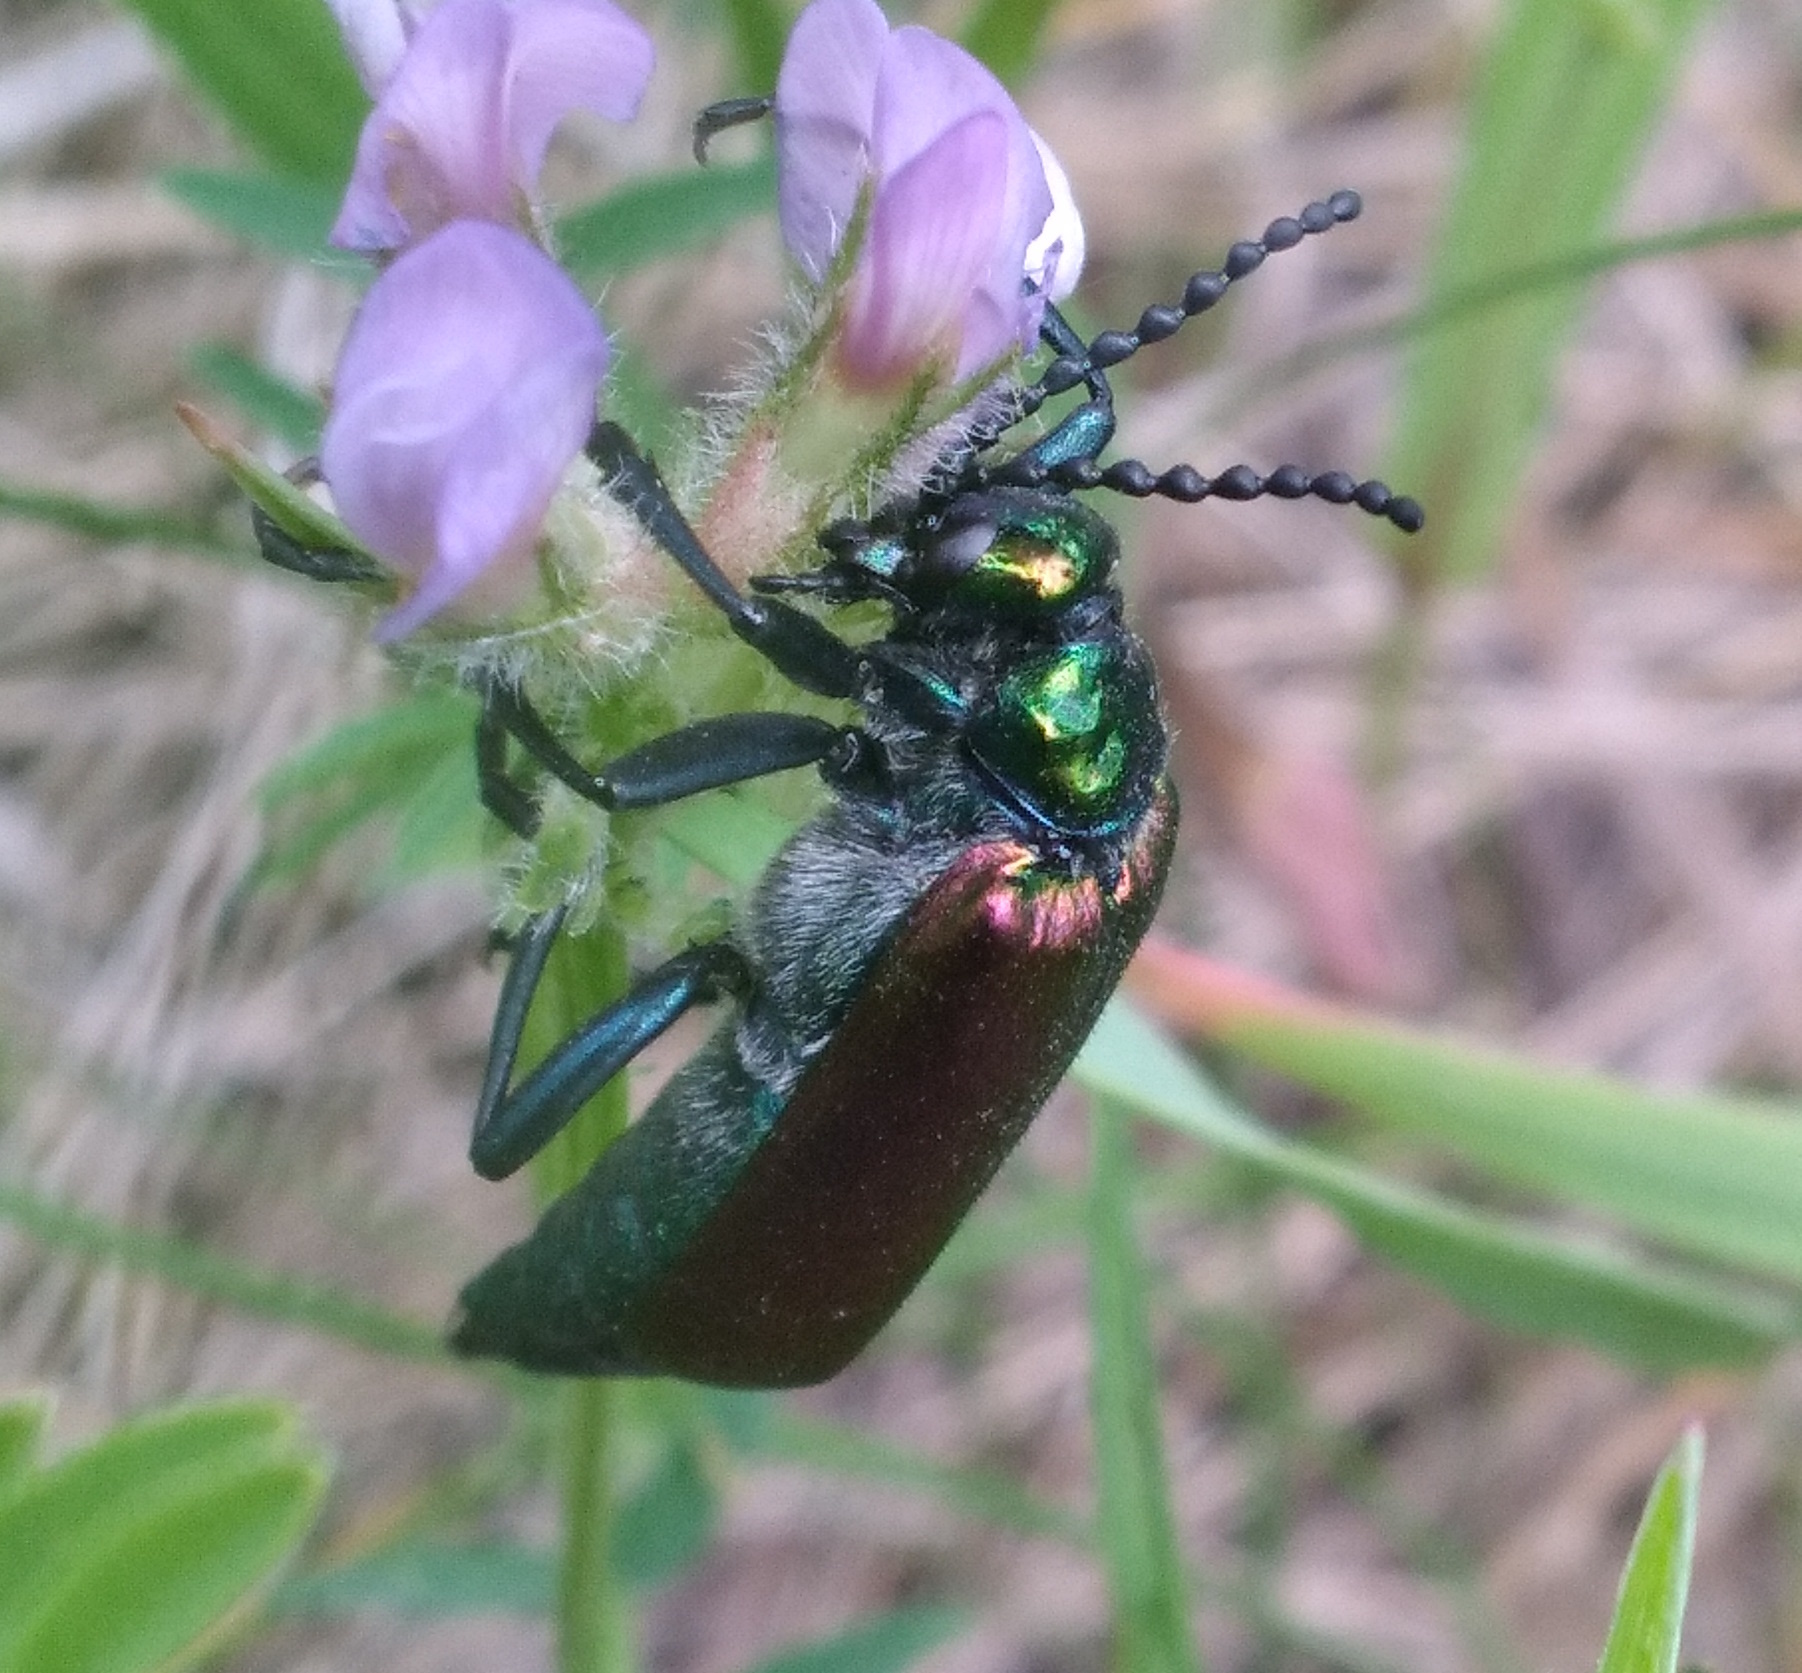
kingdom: Animalia
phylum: Arthropoda
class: Insecta
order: Coleoptera
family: Meloidae
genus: Lytta
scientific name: Lytta nuttallii
